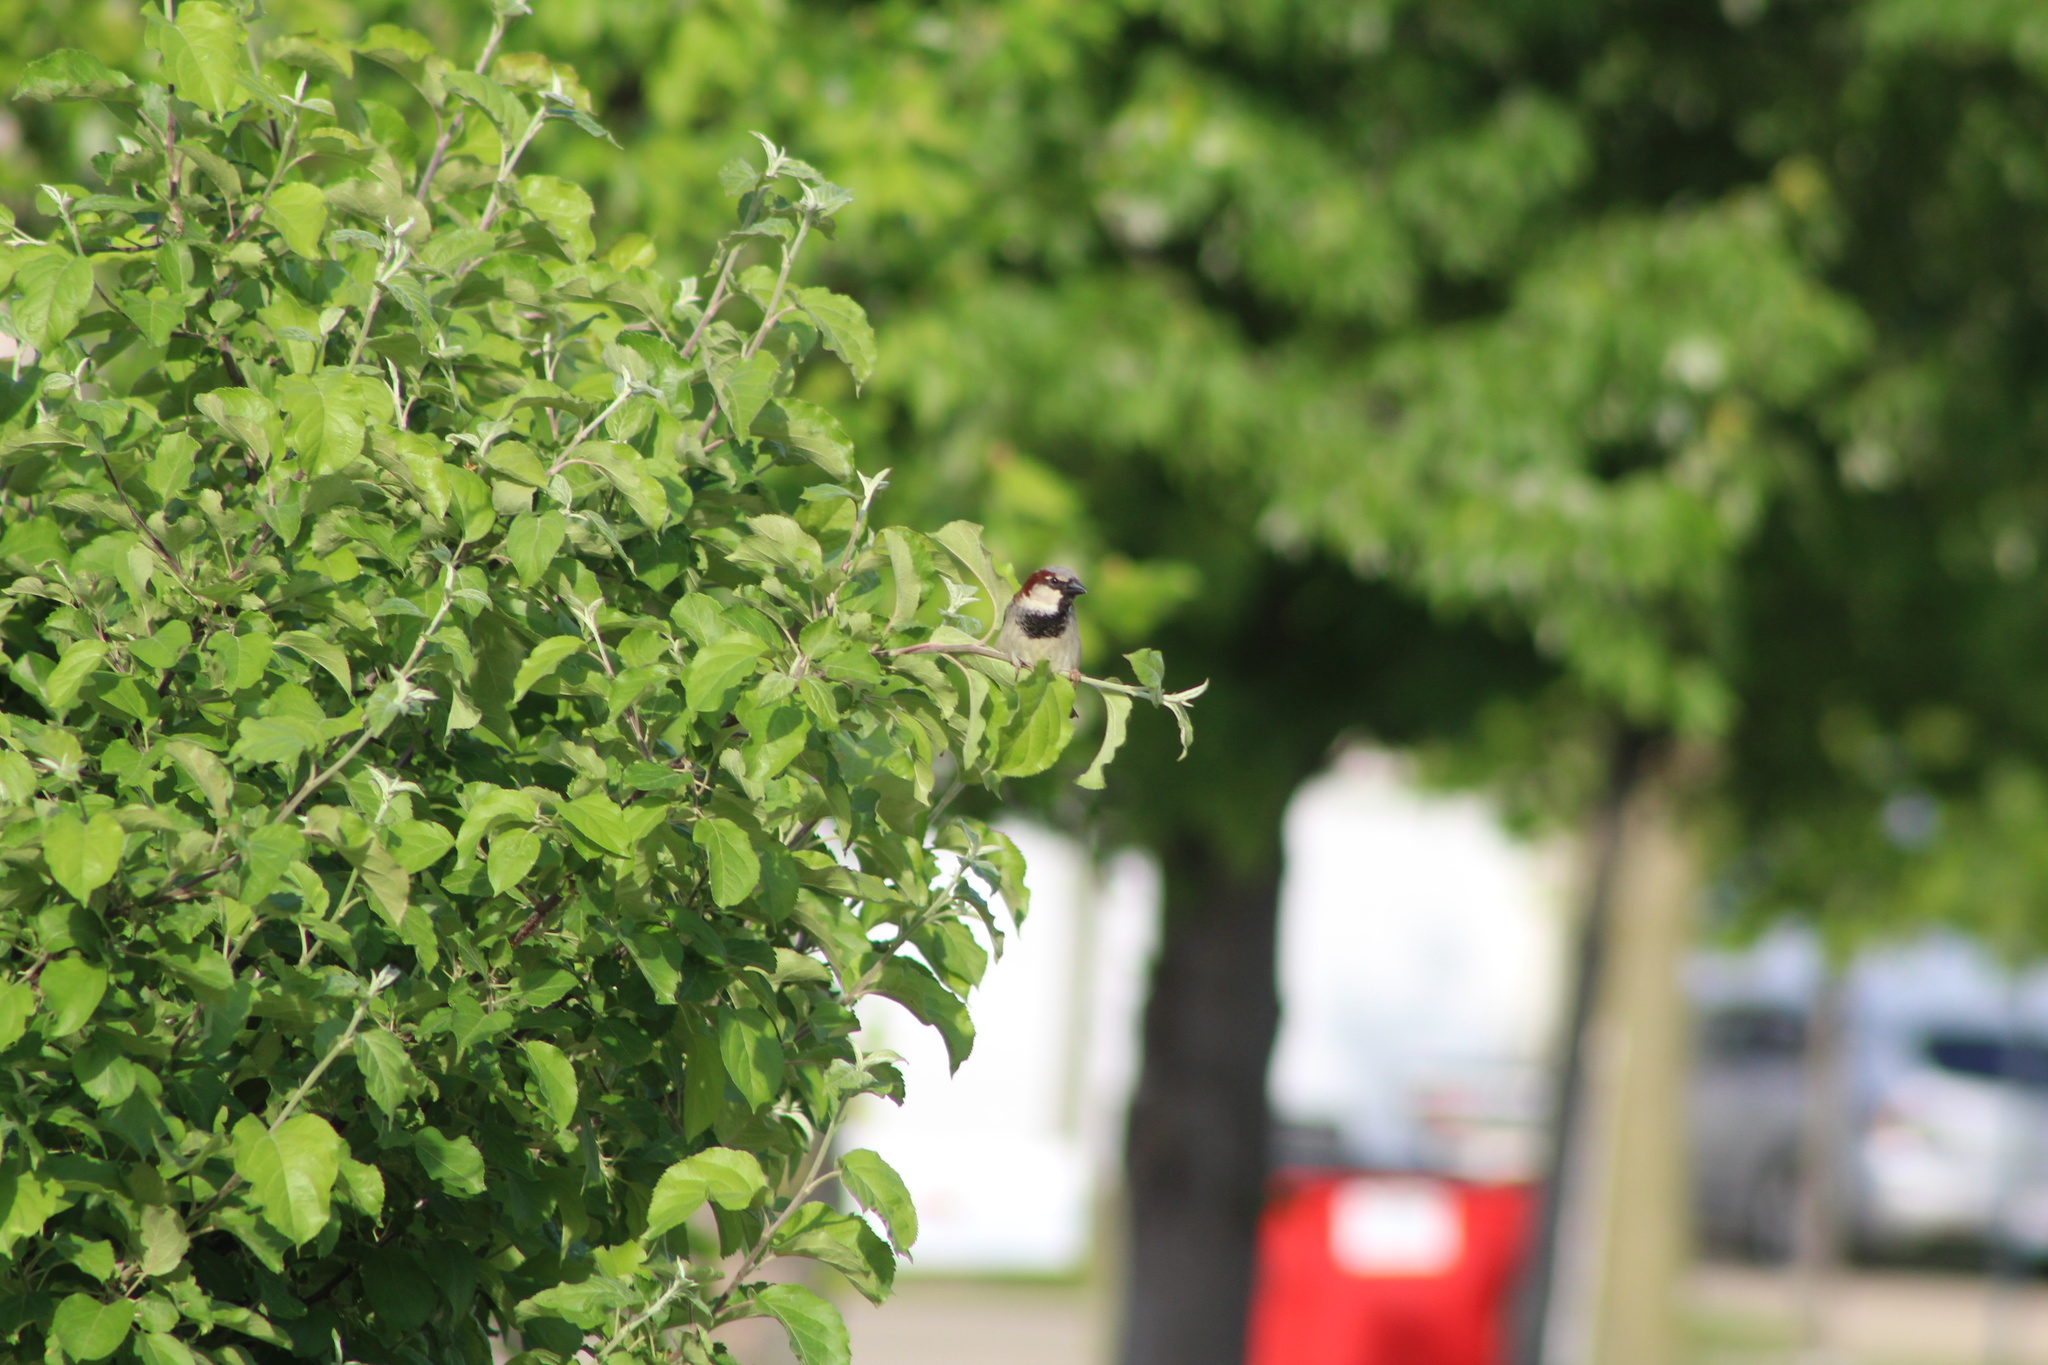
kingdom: Animalia
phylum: Chordata
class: Aves
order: Passeriformes
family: Passeridae
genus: Passer
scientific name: Passer domesticus
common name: House sparrow
